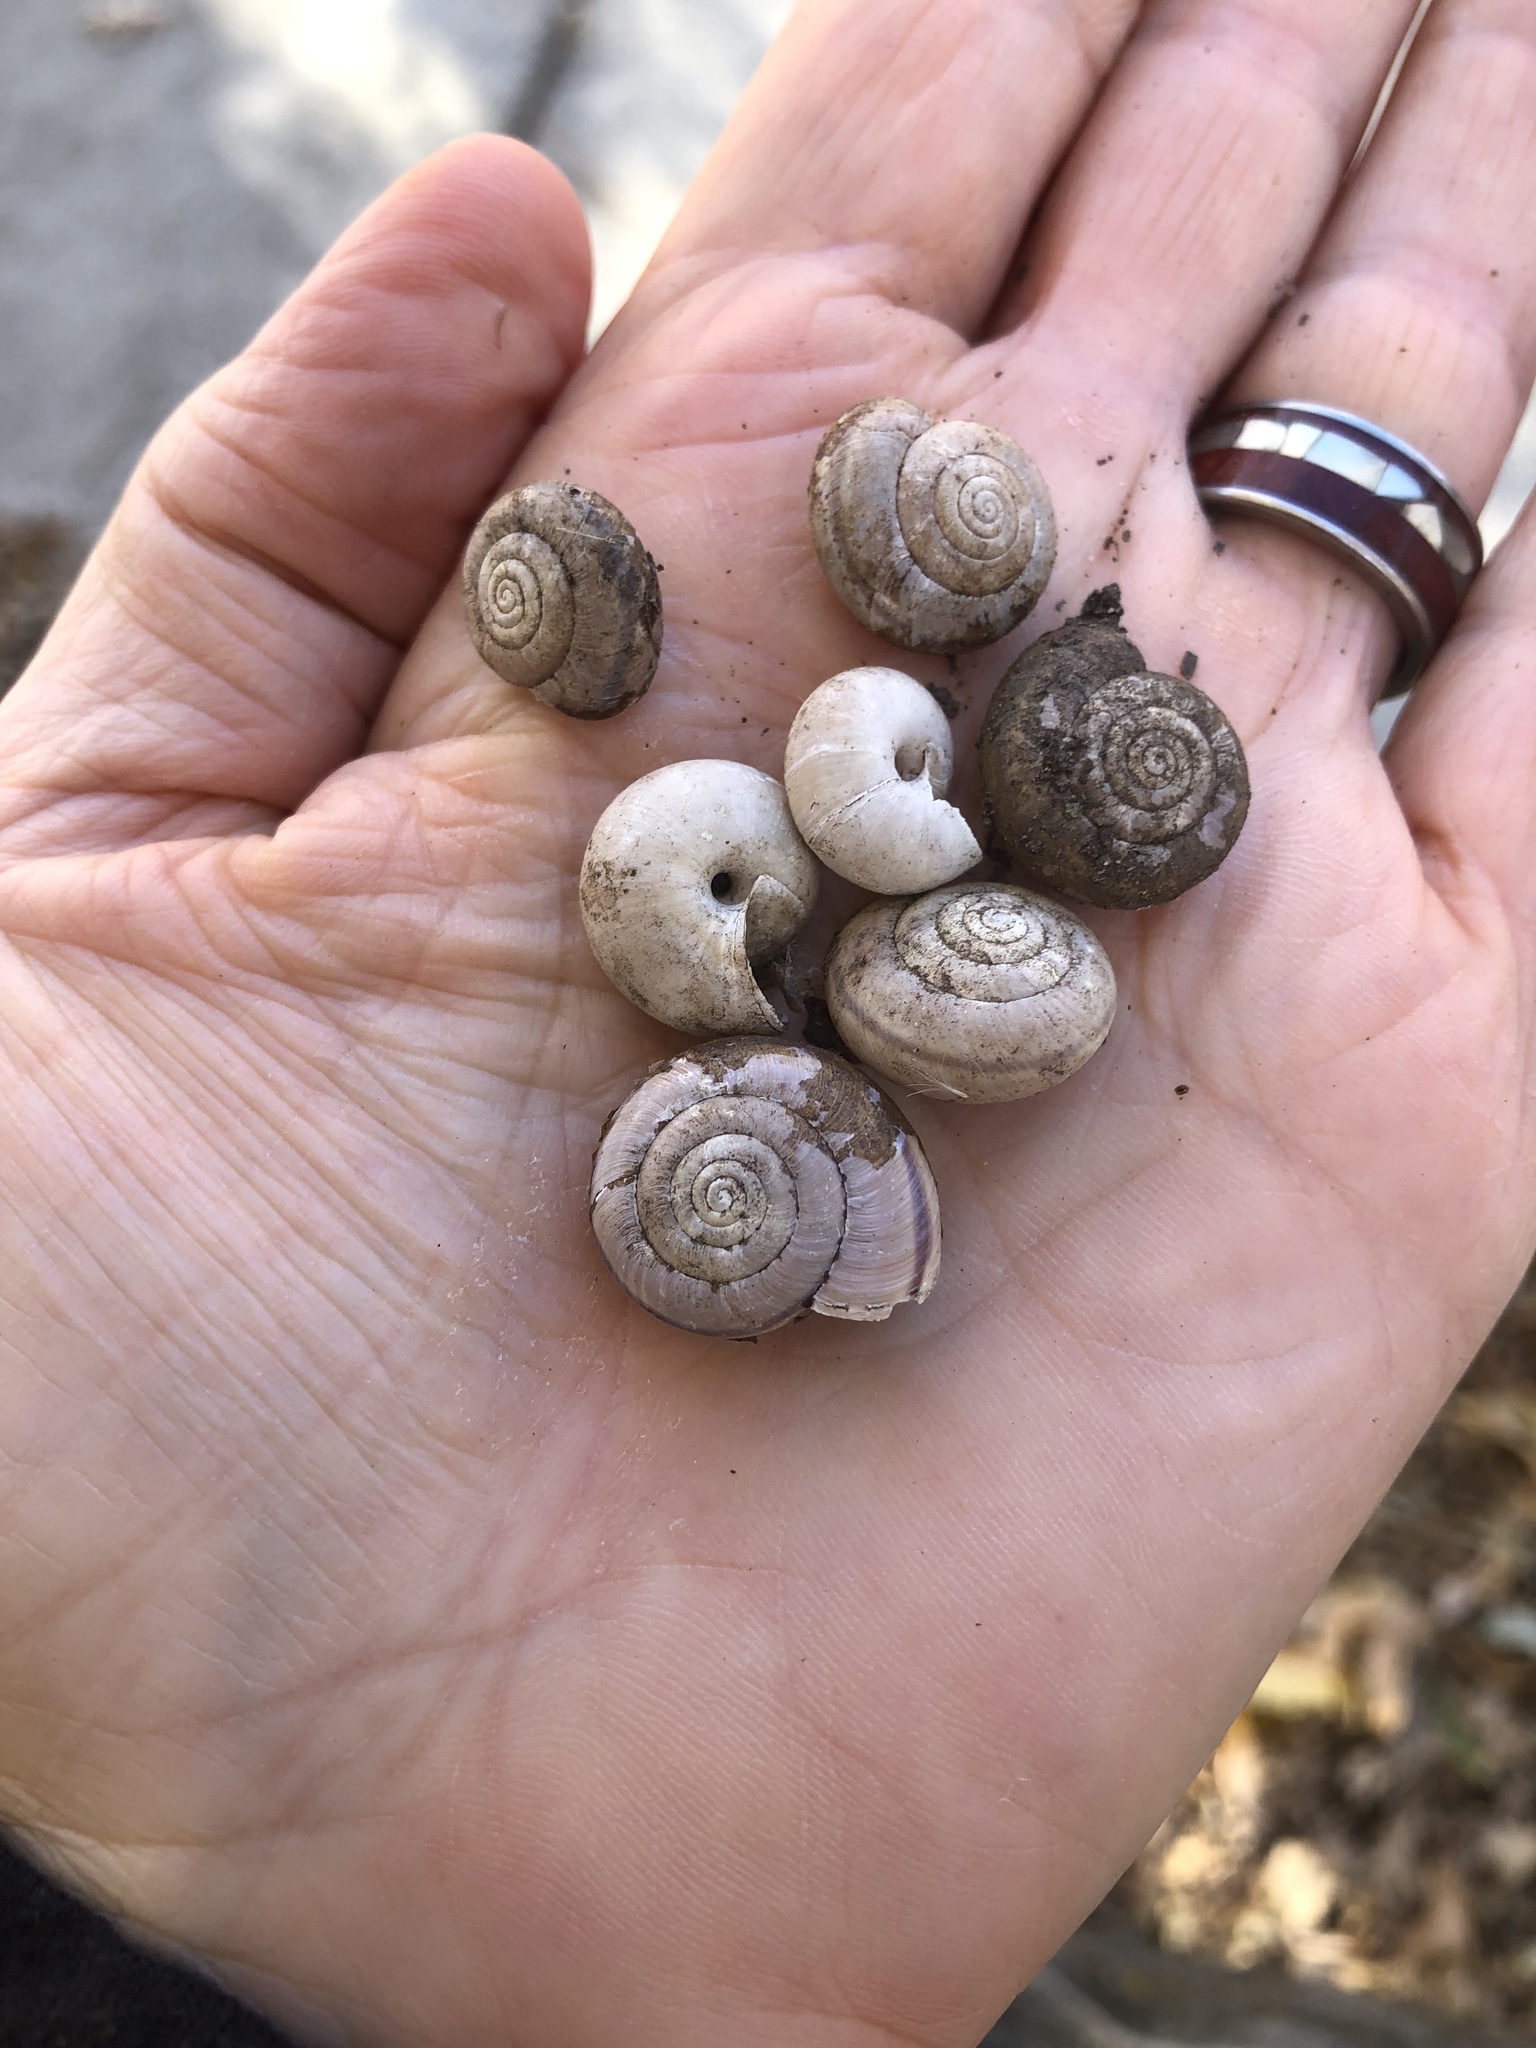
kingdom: Animalia
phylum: Mollusca
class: Gastropoda
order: Stylommatophora
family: Xanthonychidae
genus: Helminthoglypta
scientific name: Helminthoglypta uvasana
